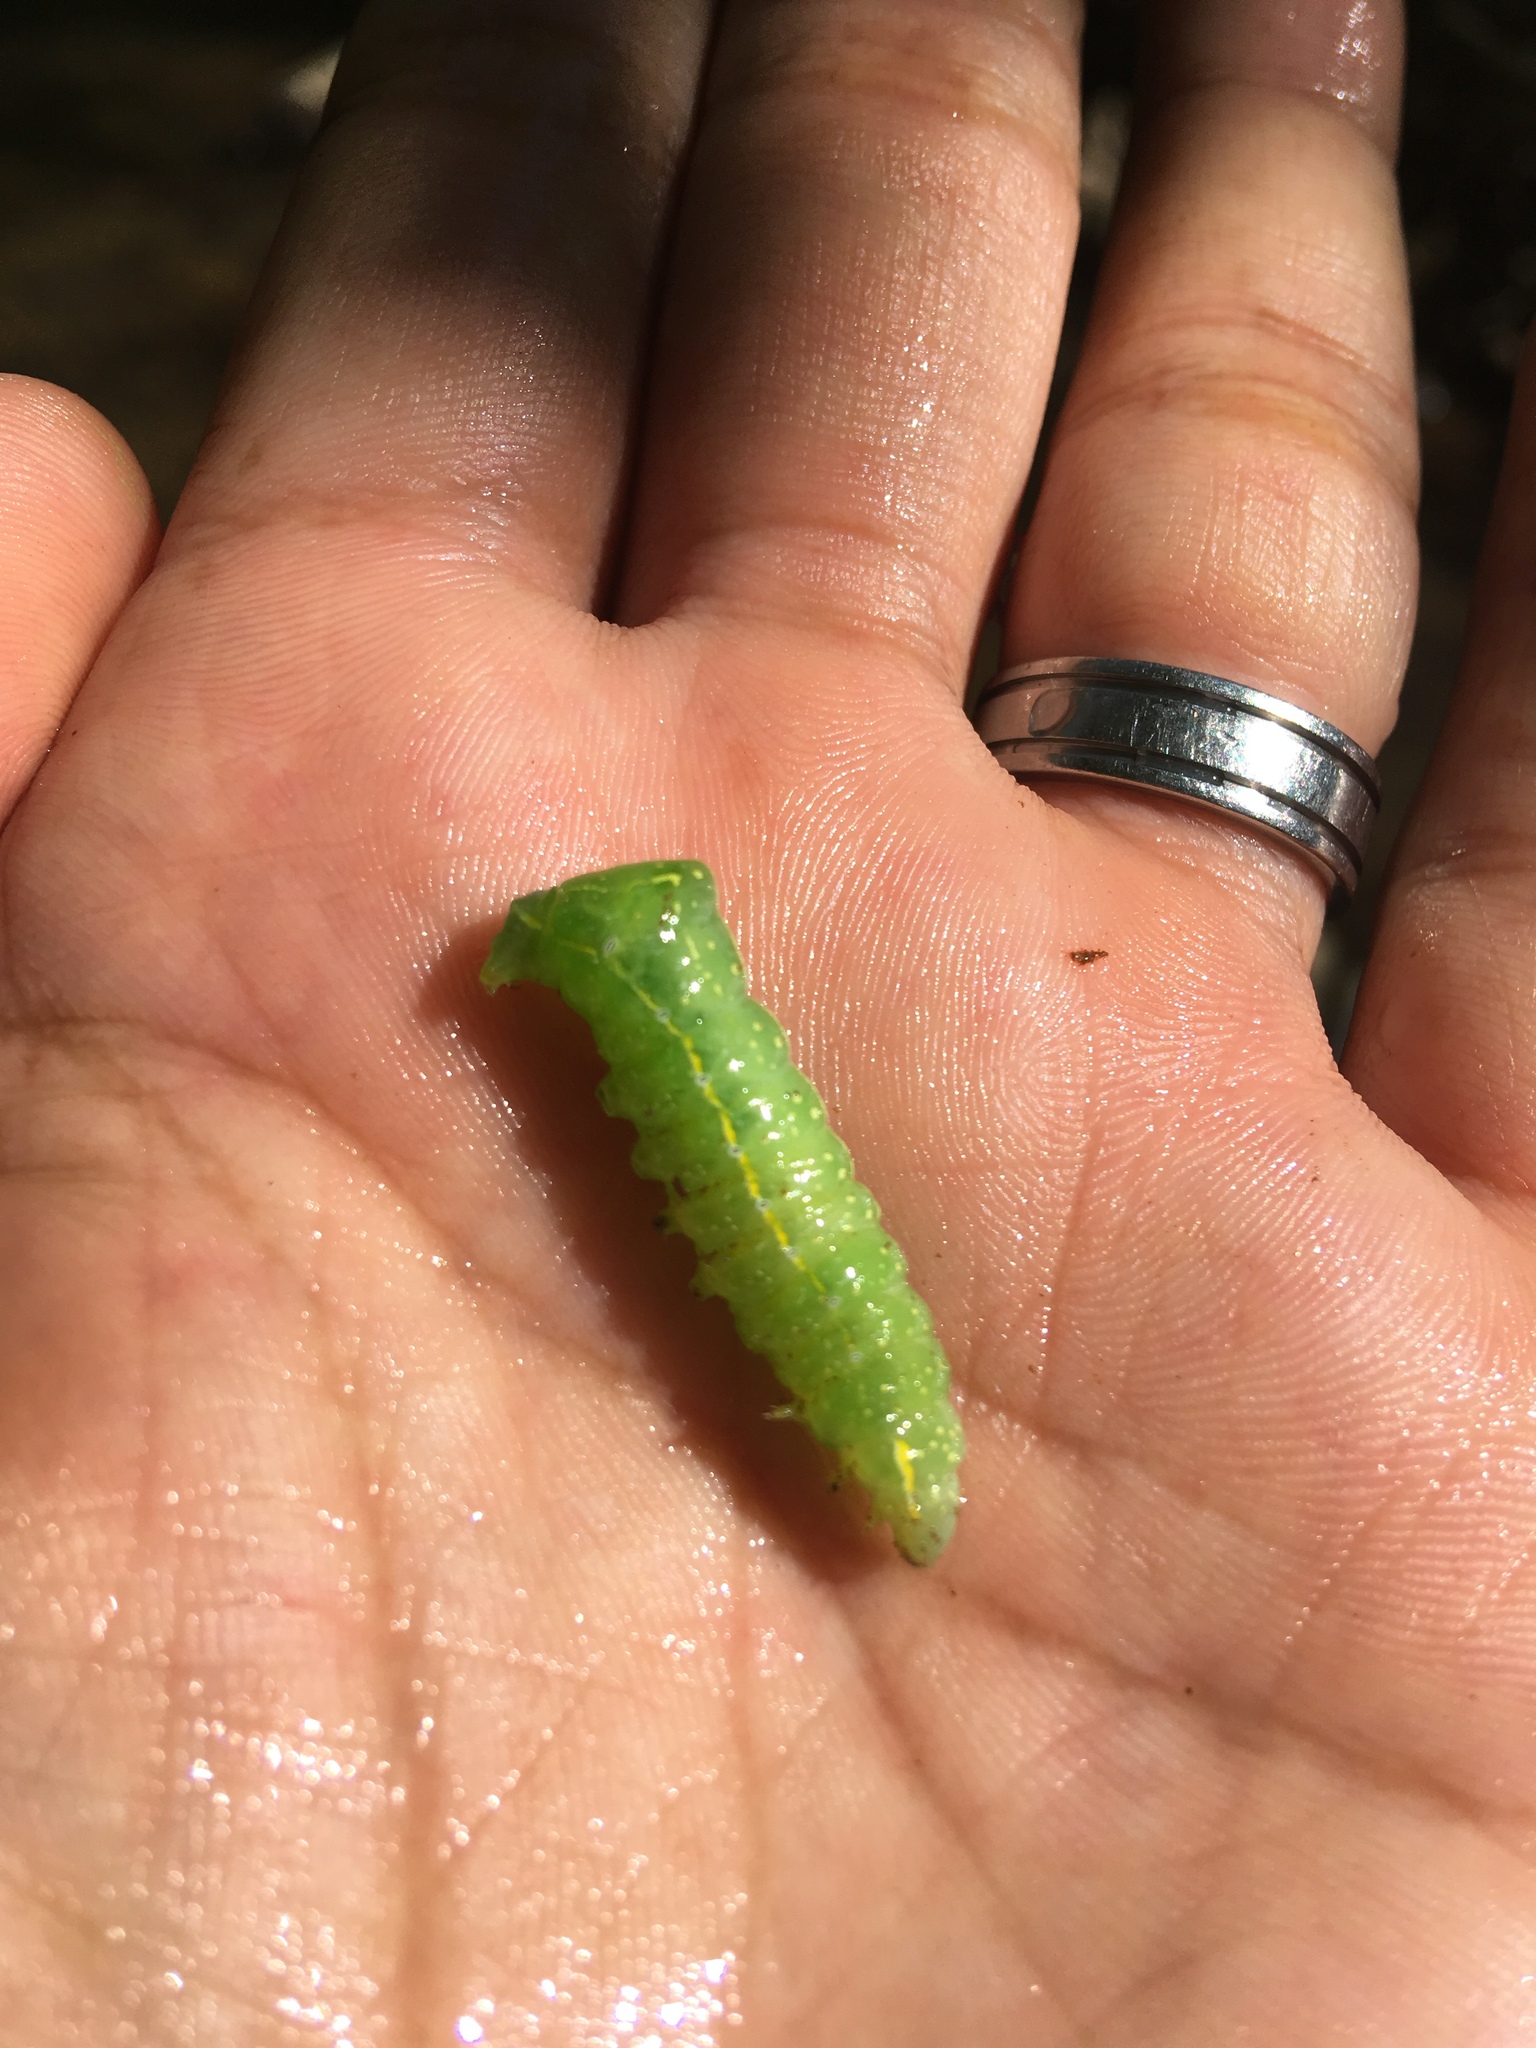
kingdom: Animalia
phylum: Arthropoda
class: Insecta
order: Lepidoptera
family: Noctuidae
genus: Amphipyra
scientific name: Amphipyra pyramidoides
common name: American copper underwing
